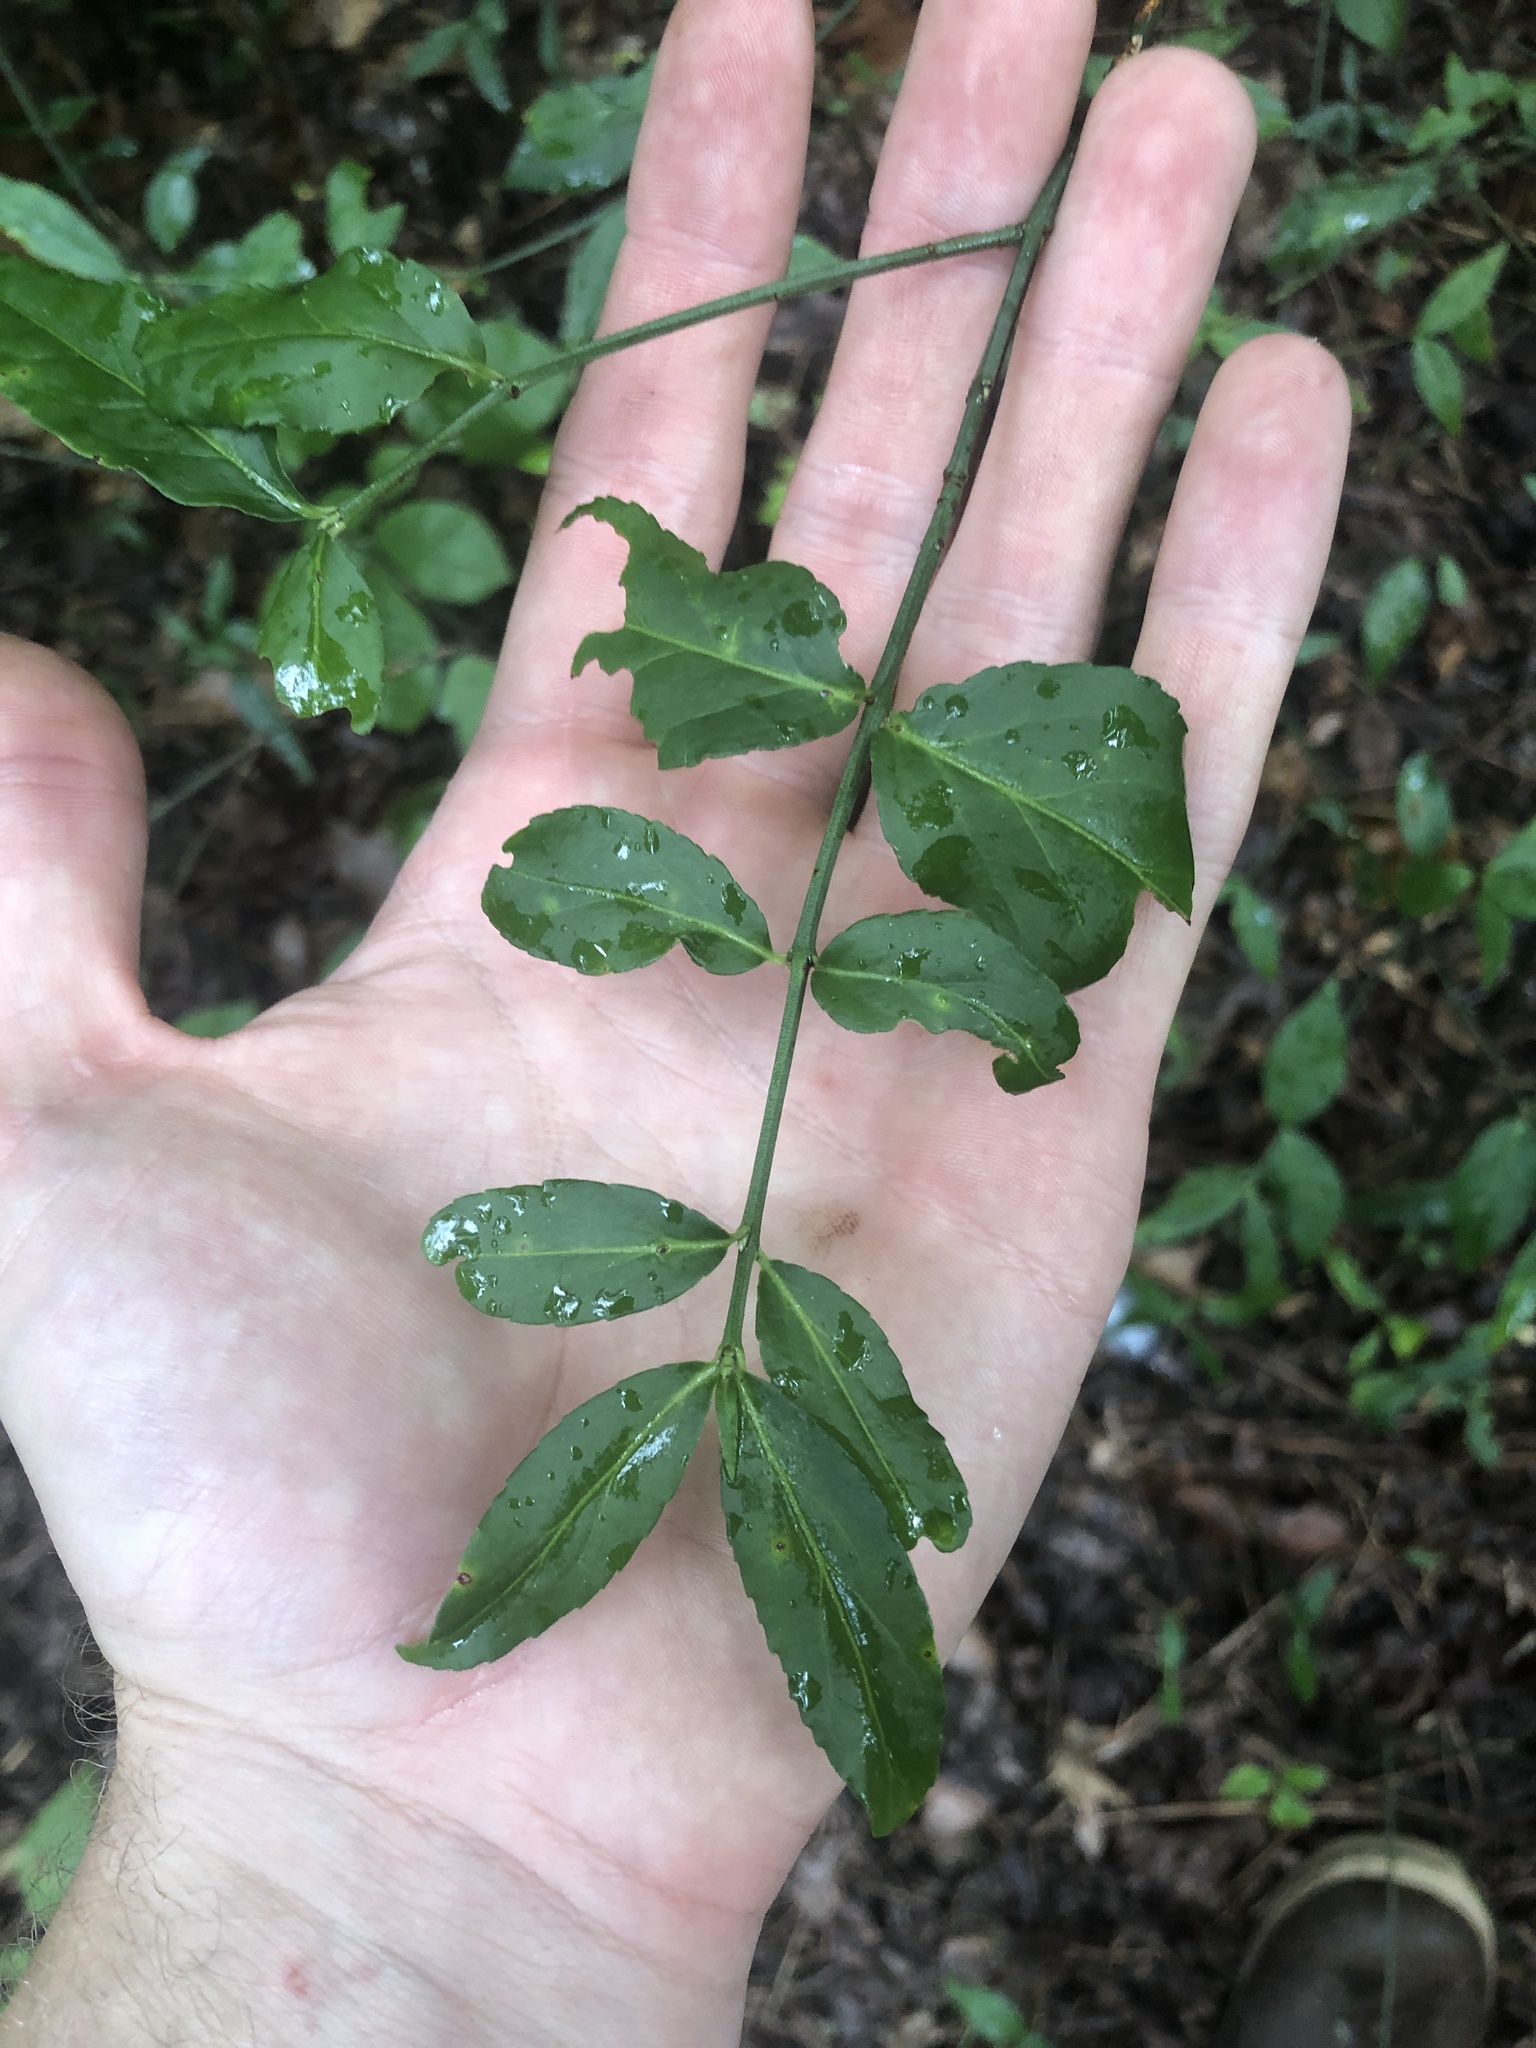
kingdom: Plantae
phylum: Tracheophyta
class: Magnoliopsida
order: Celastrales
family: Celastraceae
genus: Euonymus
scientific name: Euonymus americanus
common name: Bursting-heart
